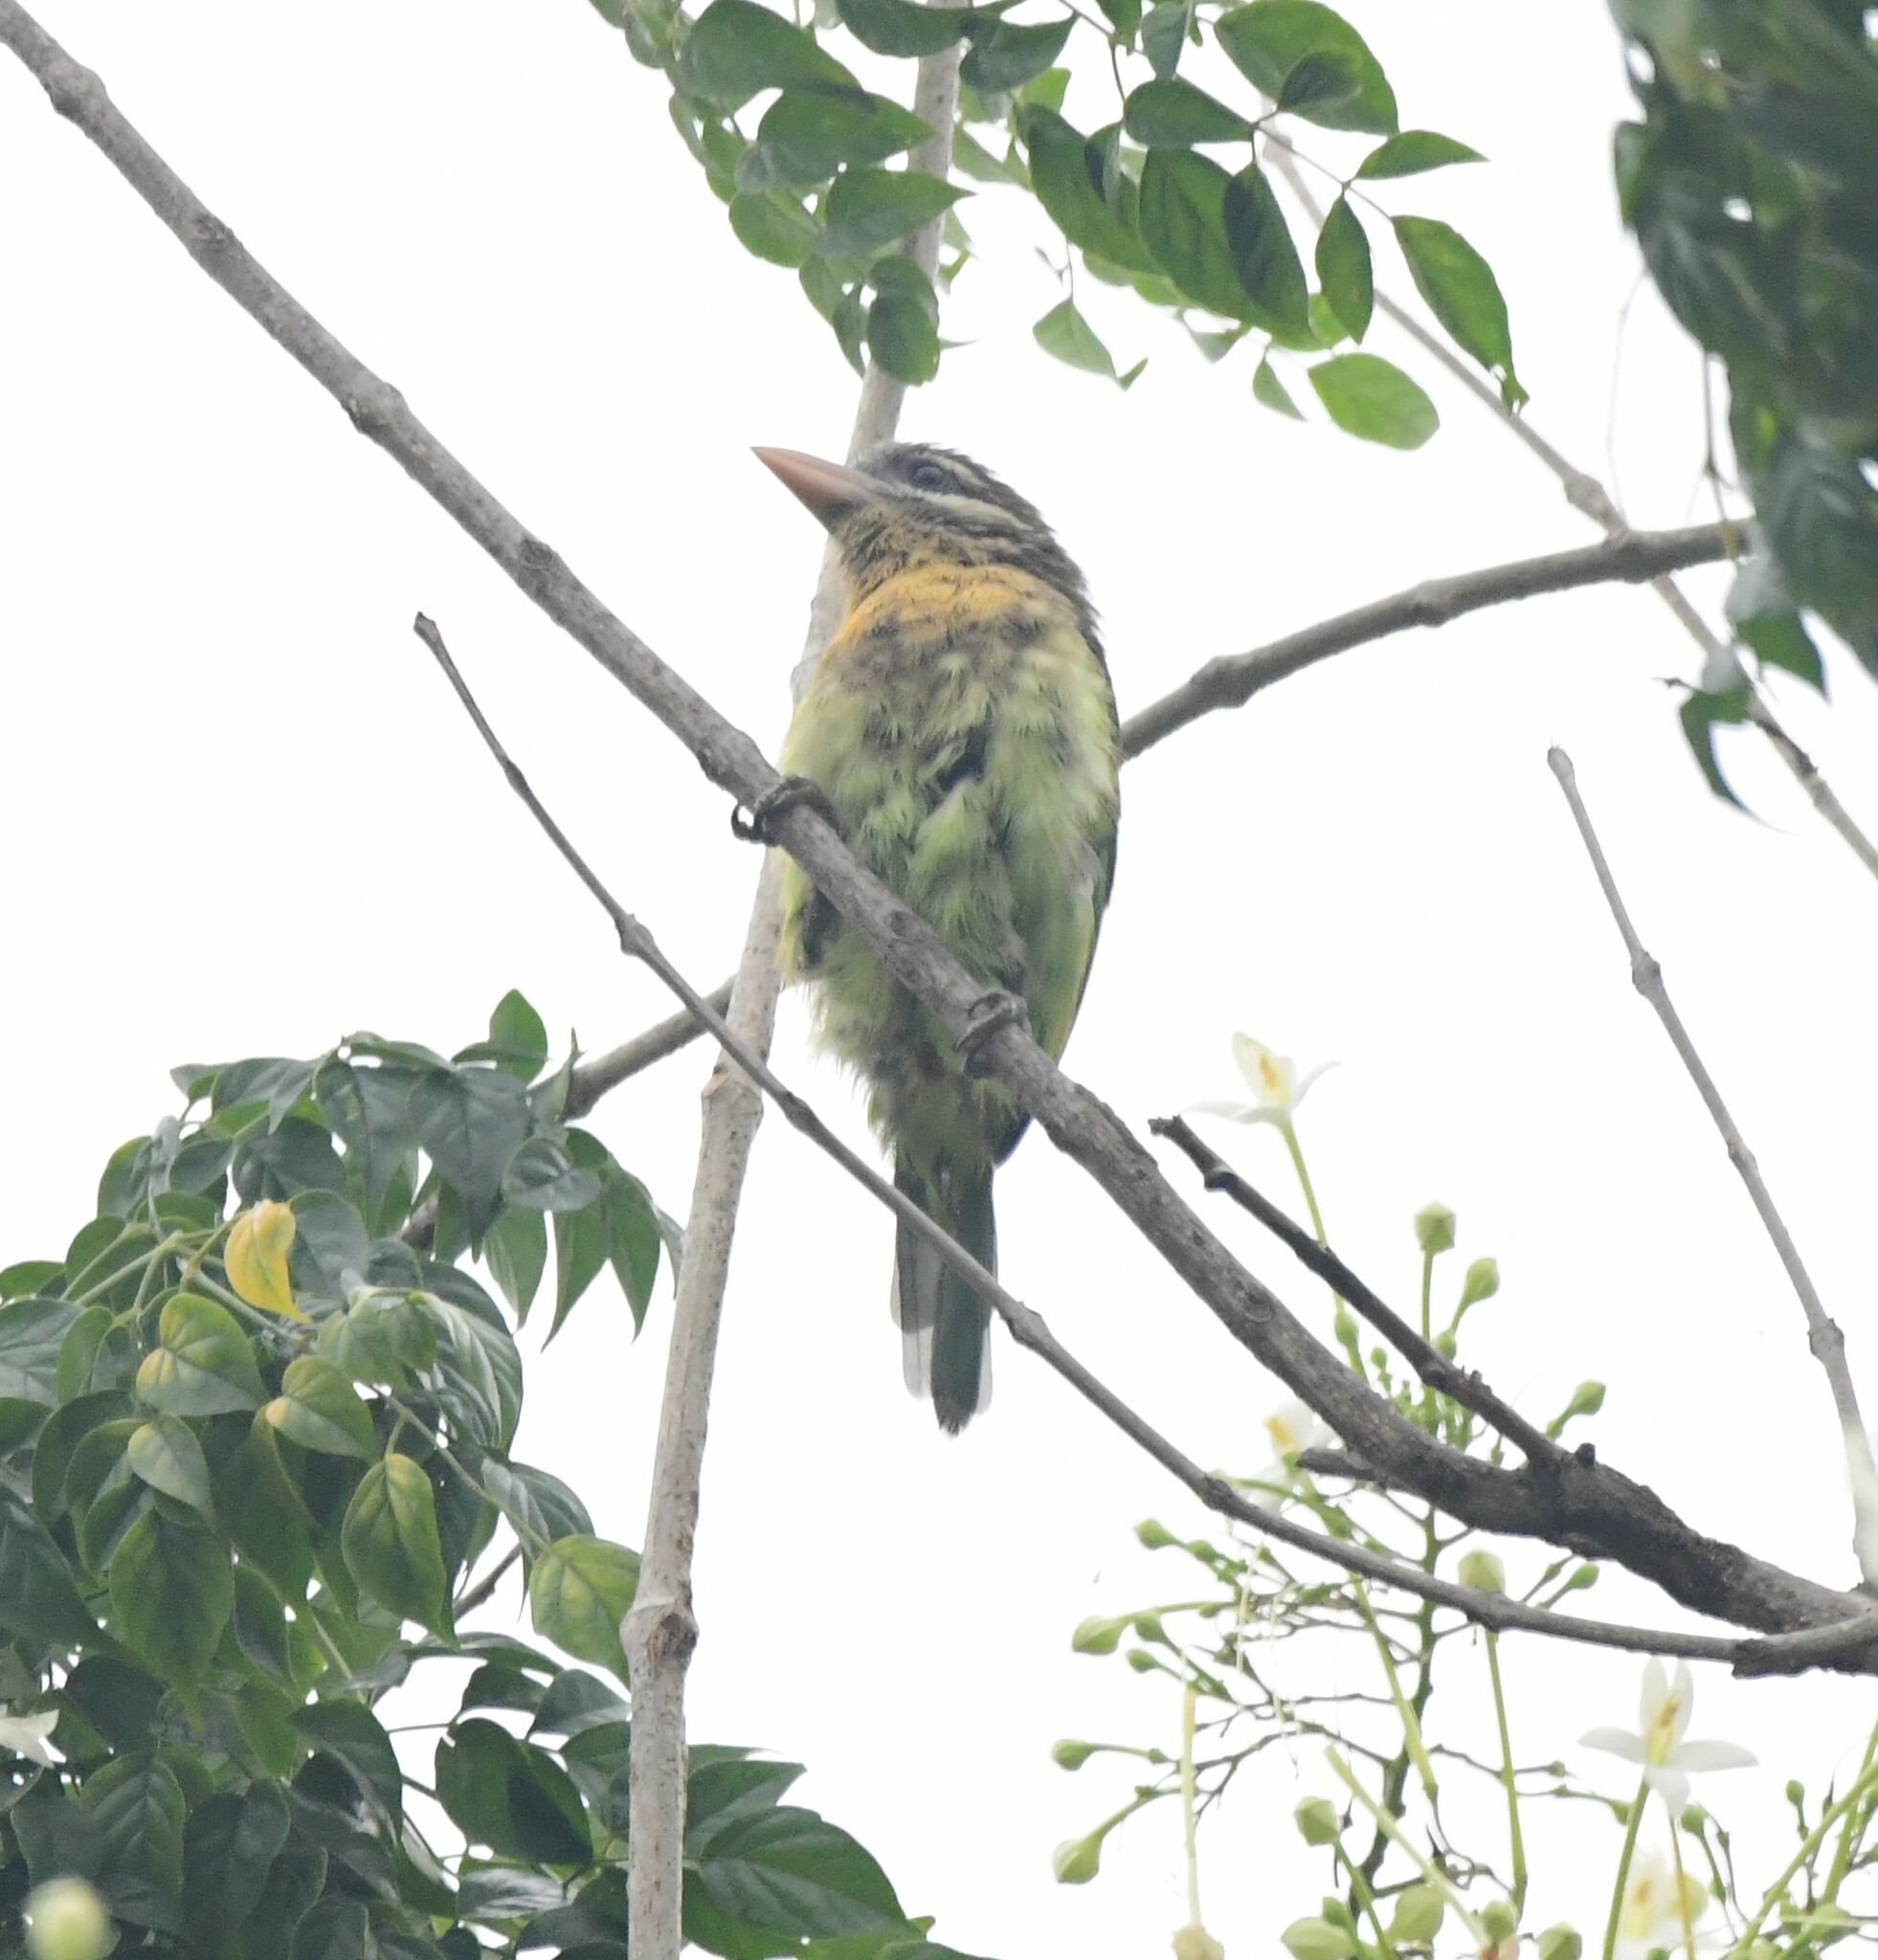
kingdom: Animalia
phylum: Chordata
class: Aves
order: Piciformes
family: Megalaimidae
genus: Psilopogon
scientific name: Psilopogon viridis
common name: White-cheeked barbet
